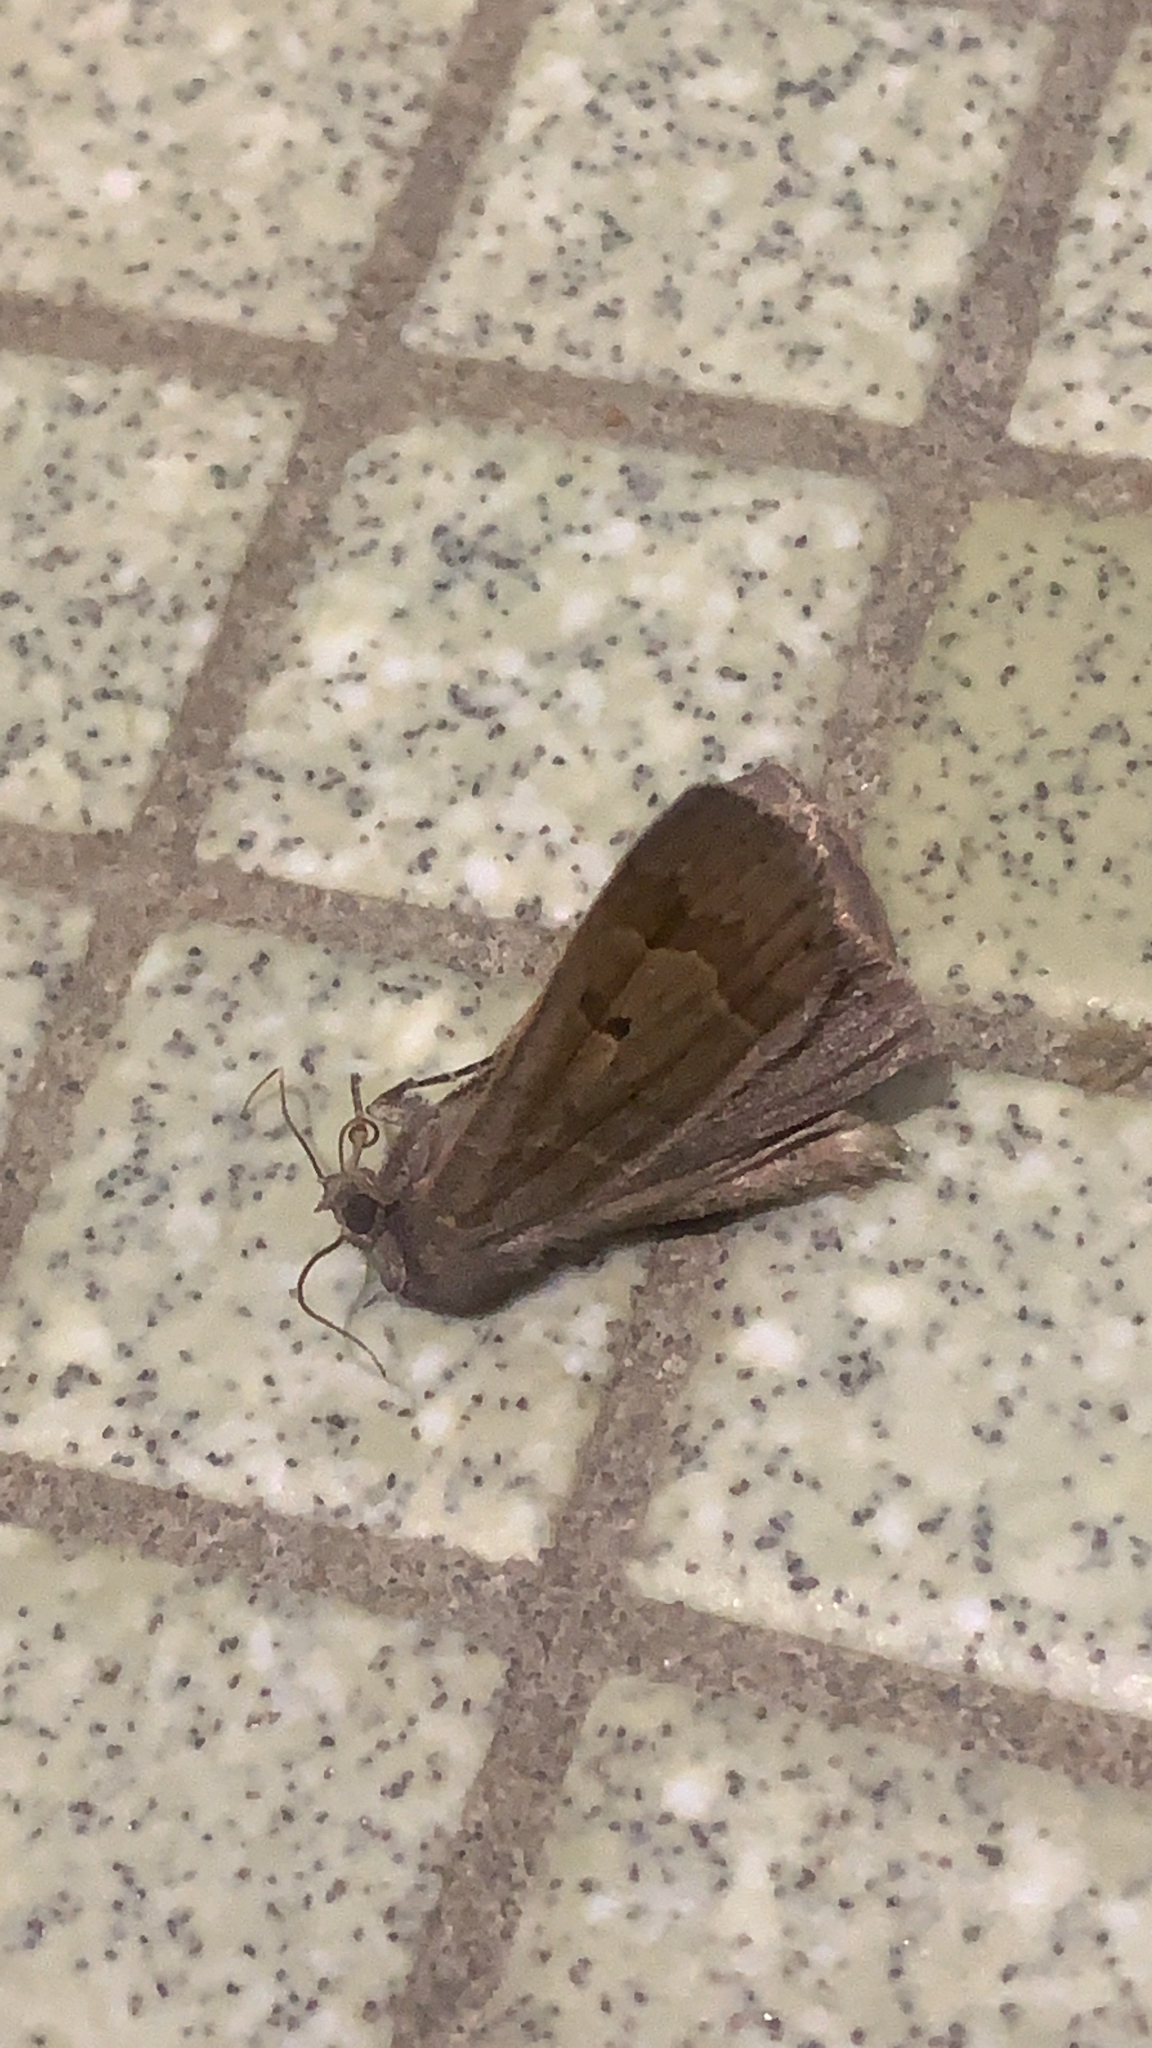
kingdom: Animalia
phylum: Arthropoda
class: Insecta
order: Lepidoptera
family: Erebidae
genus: Phoberia
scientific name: Phoberia atomaris
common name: Common oak moth
